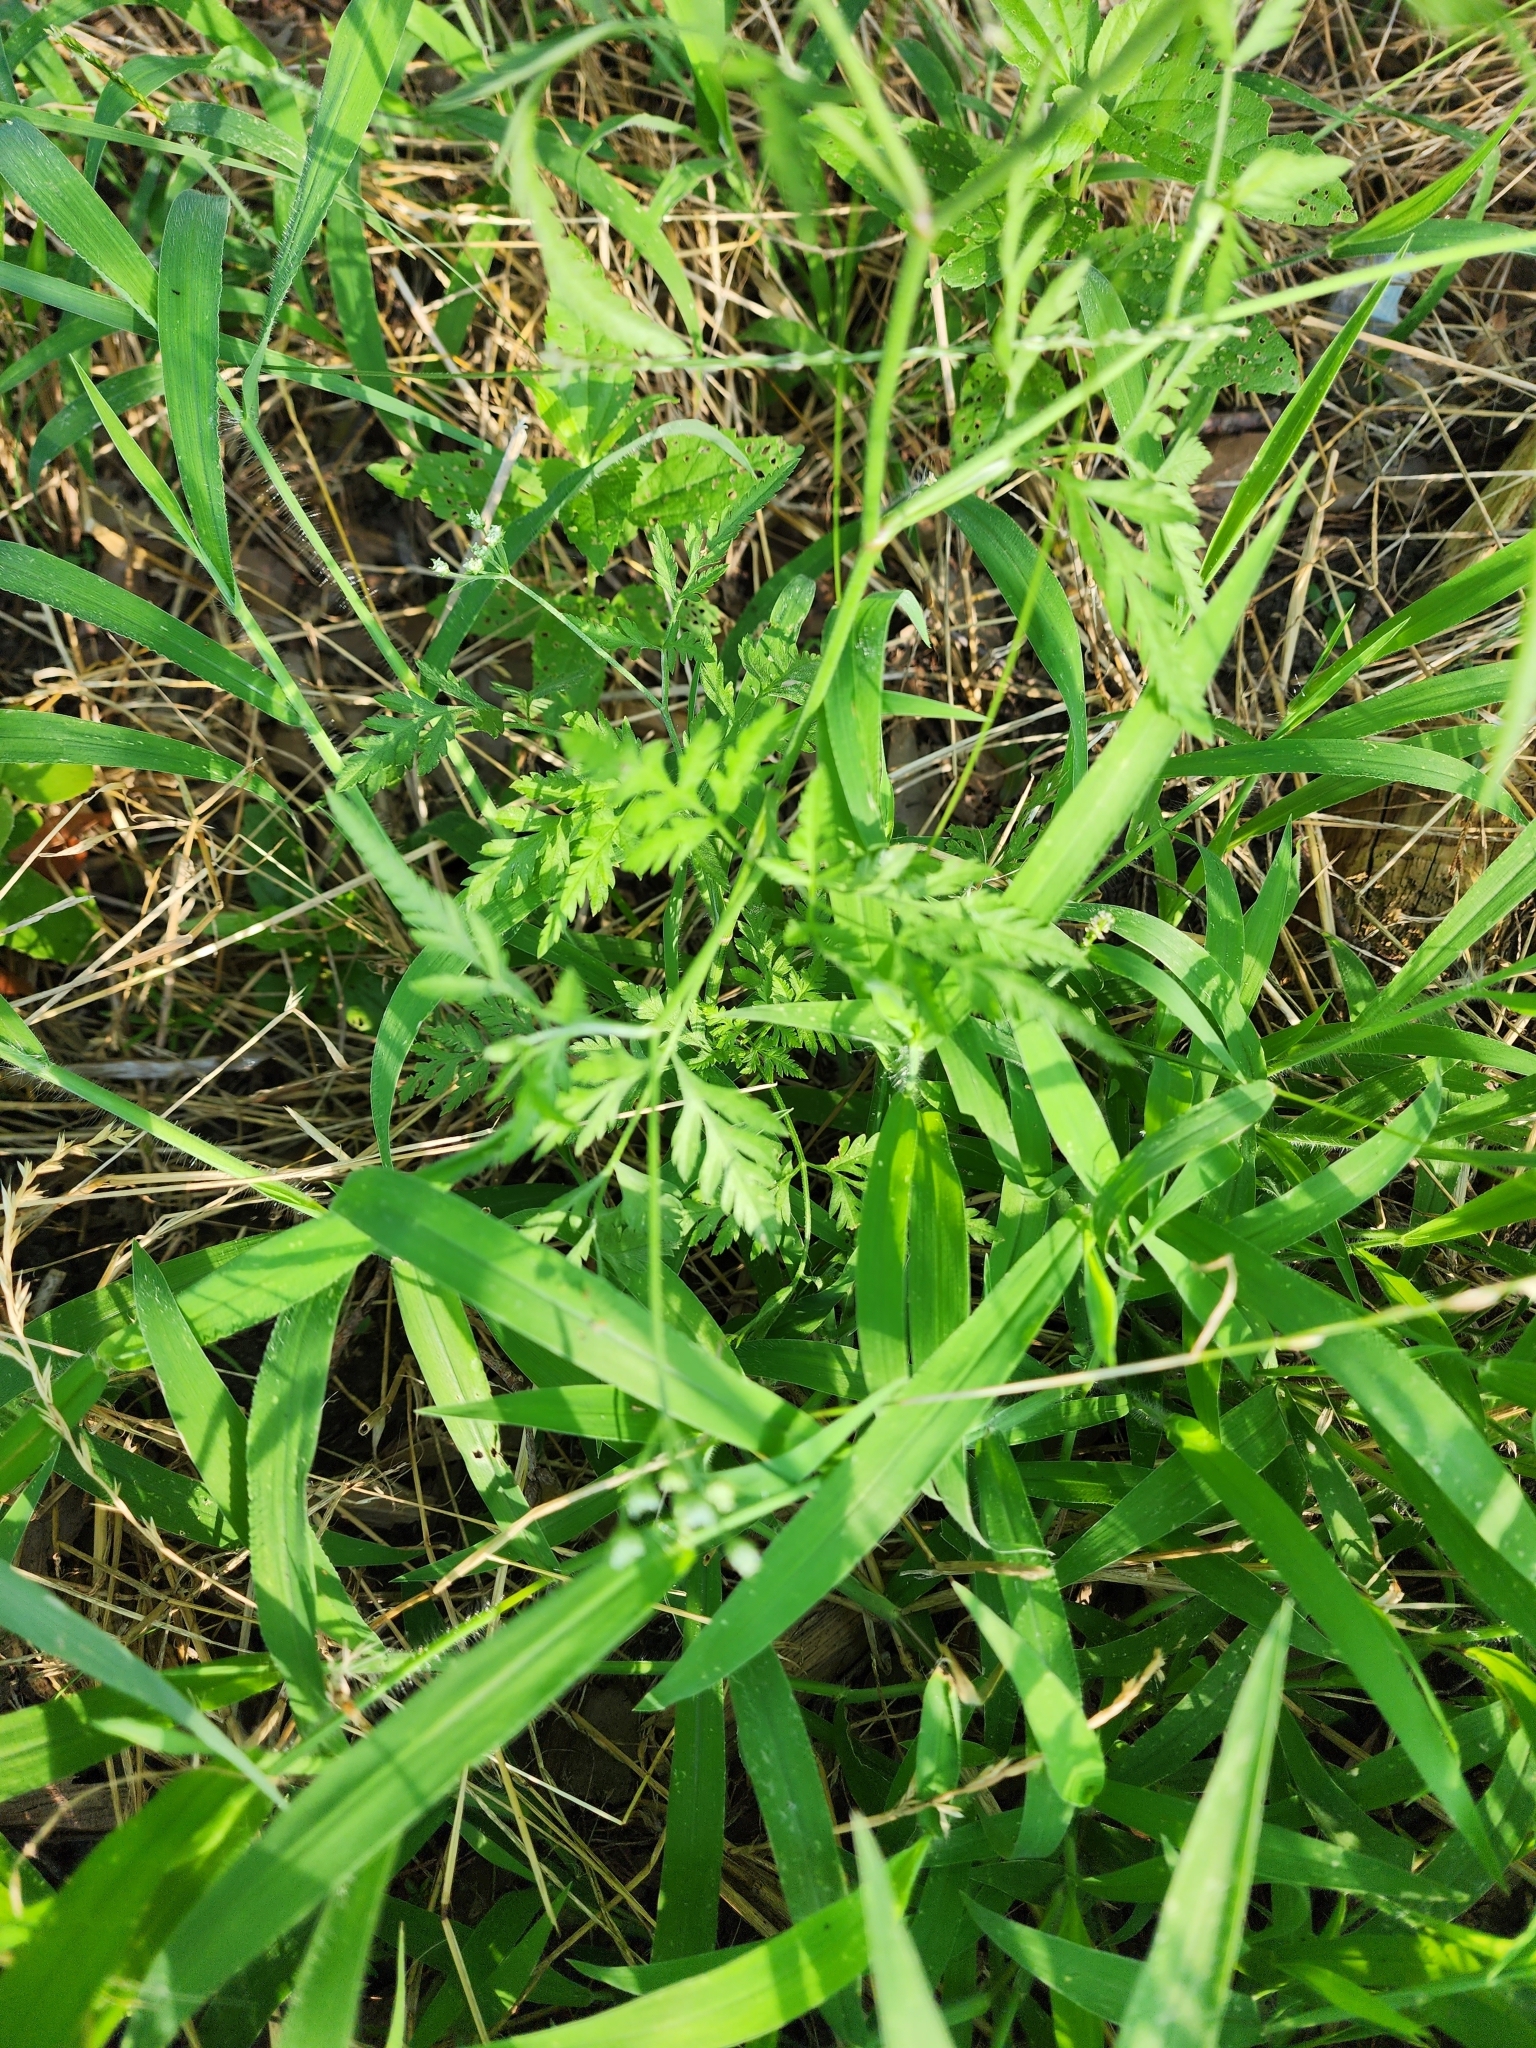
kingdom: Plantae
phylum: Tracheophyta
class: Magnoliopsida
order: Apiales
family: Apiaceae
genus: Torilis
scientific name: Torilis arvensis
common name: Spreading hedge-parsley
